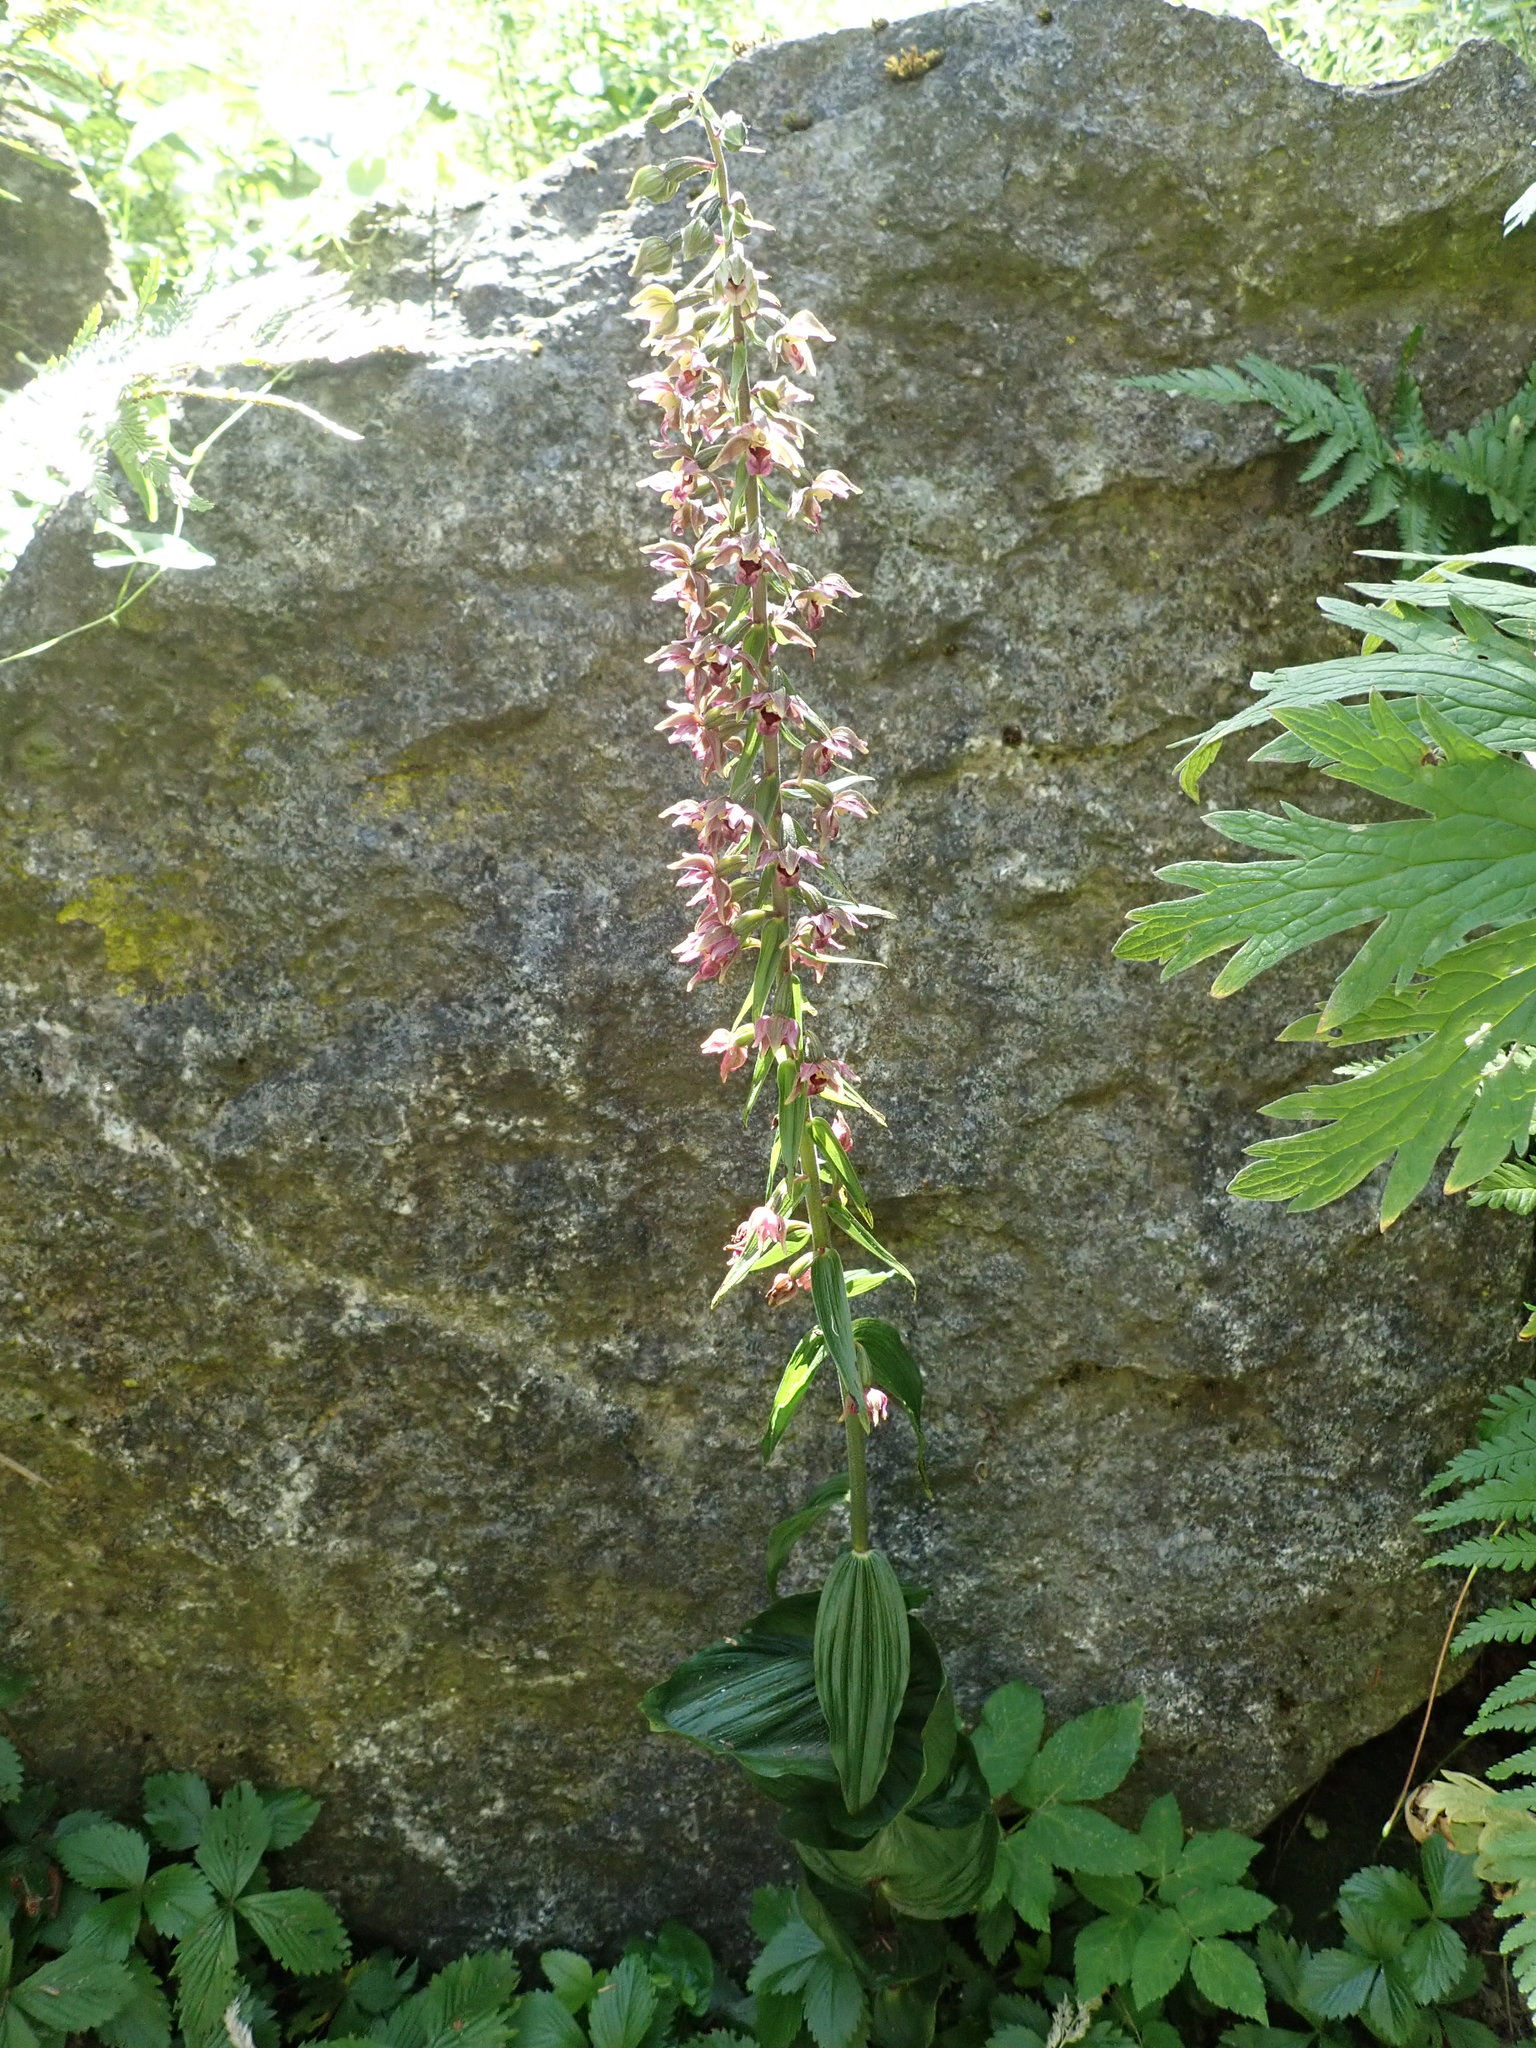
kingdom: Plantae
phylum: Tracheophyta
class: Liliopsida
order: Asparagales
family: Orchidaceae
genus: Epipactis
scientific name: Epipactis helleborine
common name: Broad-leaved helleborine
